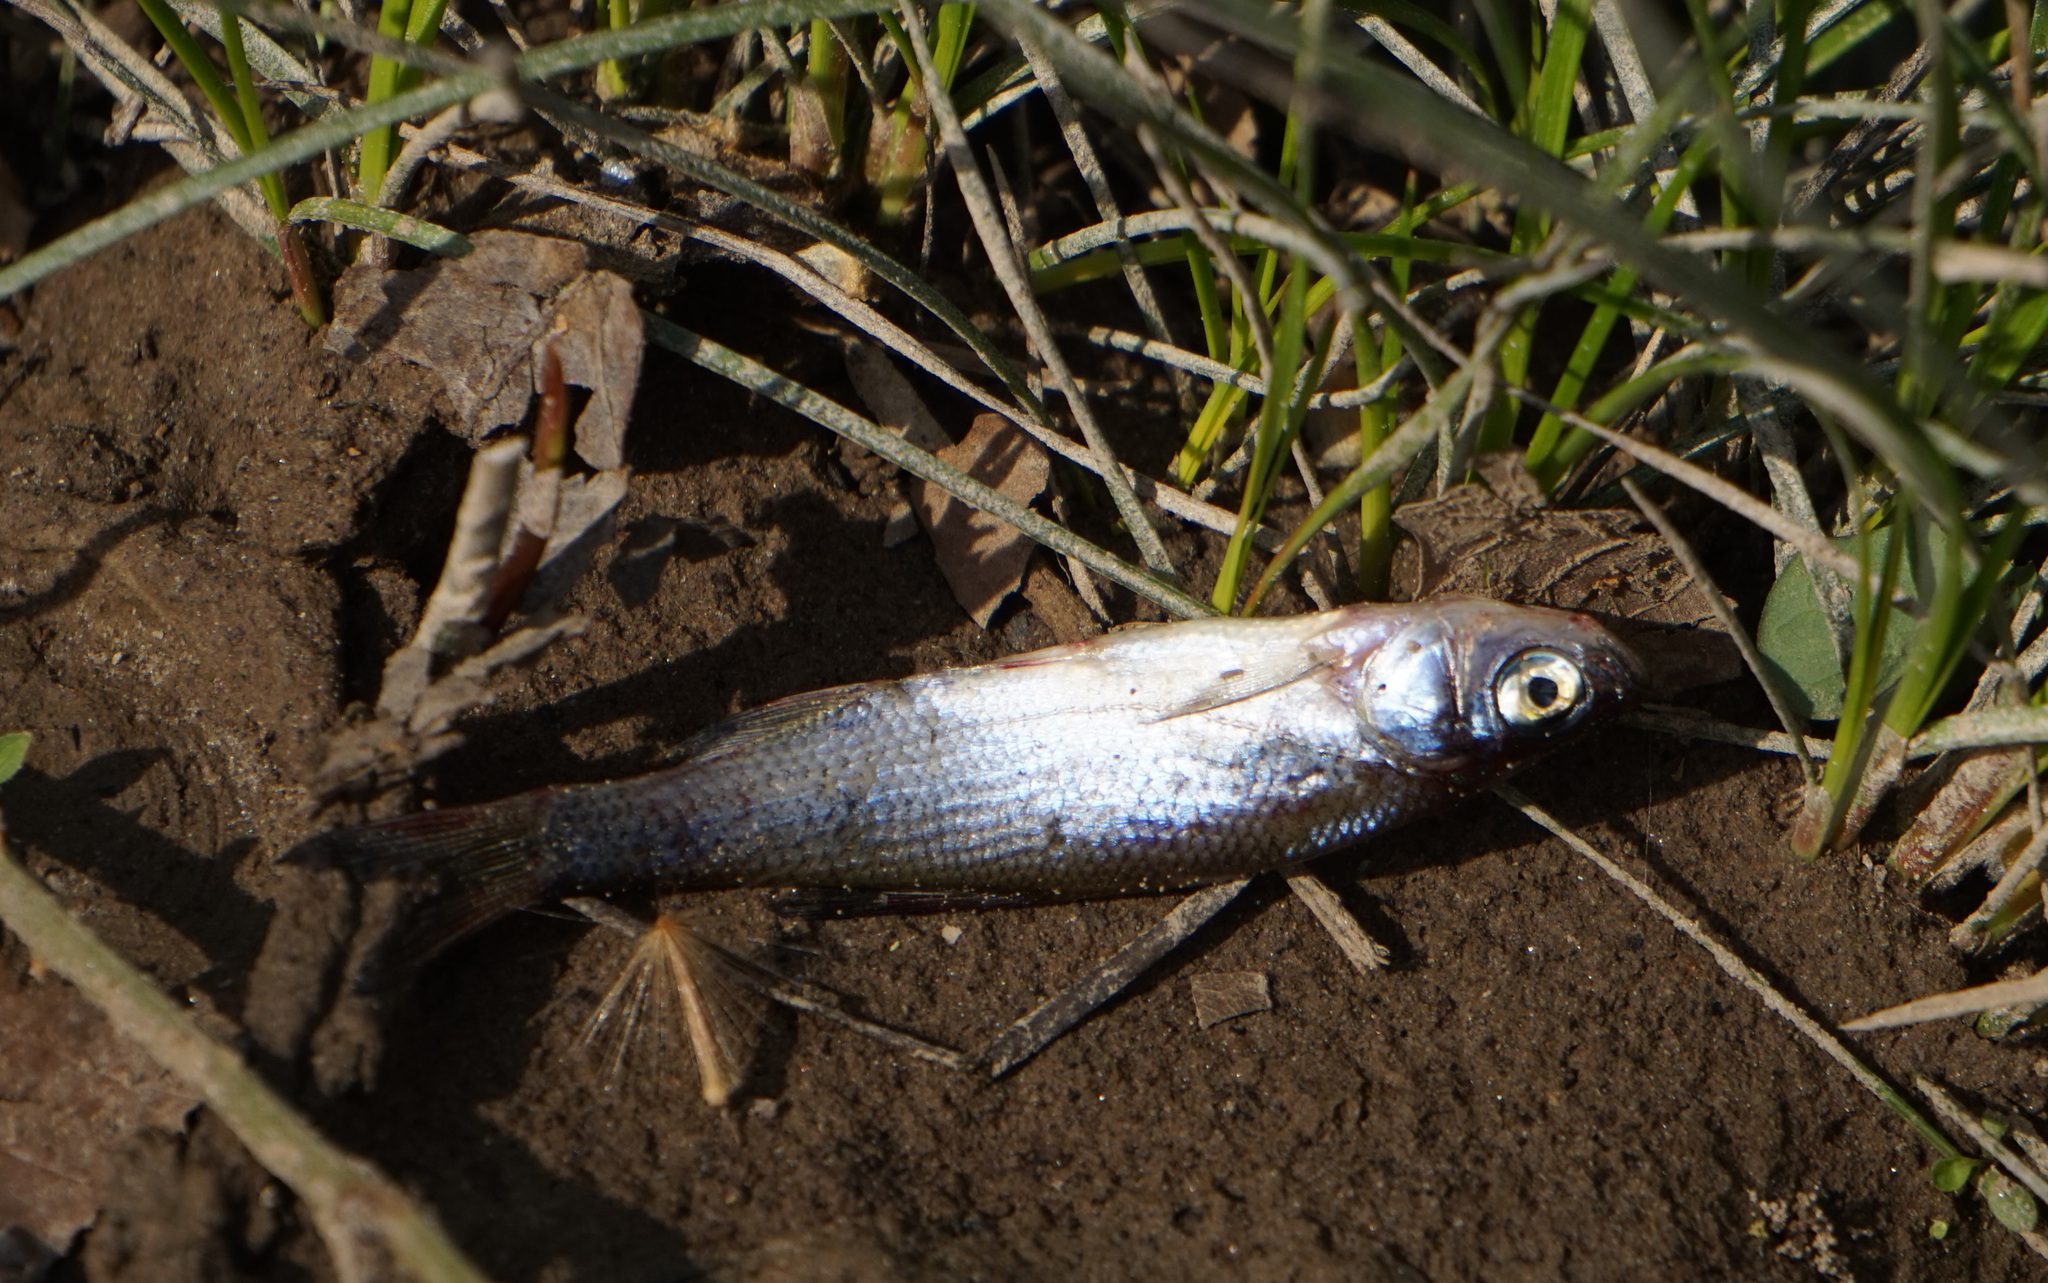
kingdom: Animalia
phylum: Chordata
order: Cypriniformes
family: Cyprinidae
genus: Notemigonus
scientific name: Notemigonus crysoleucas
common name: Golden shiner
